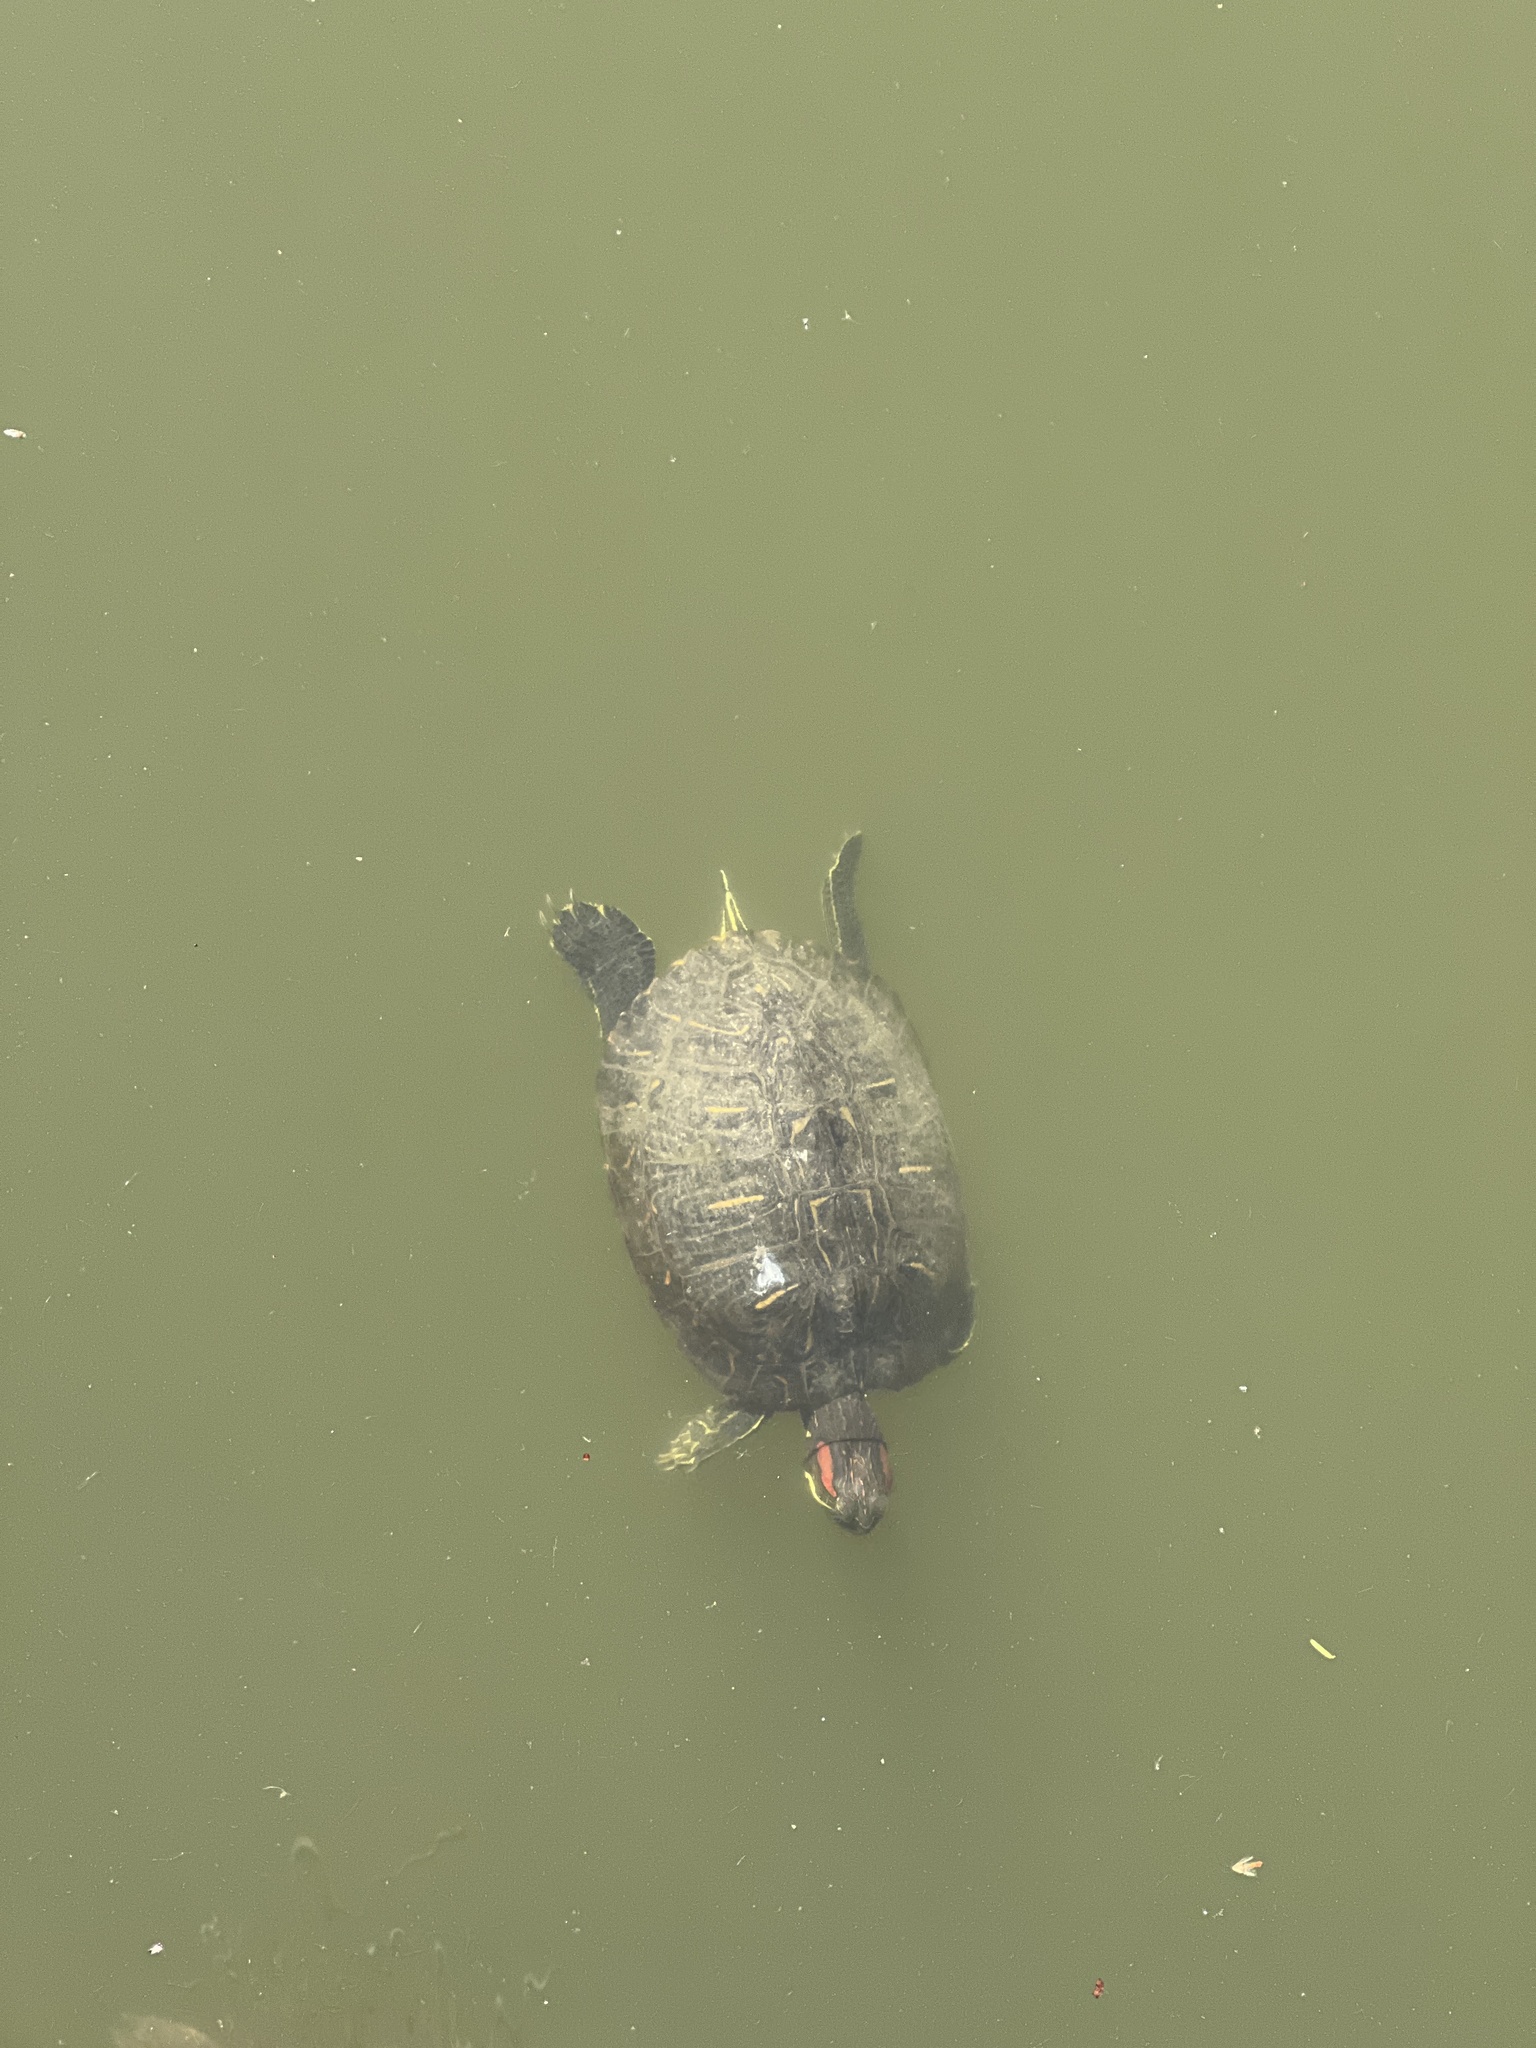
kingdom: Animalia
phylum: Chordata
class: Testudines
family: Emydidae
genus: Trachemys
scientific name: Trachemys scripta
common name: Slider
